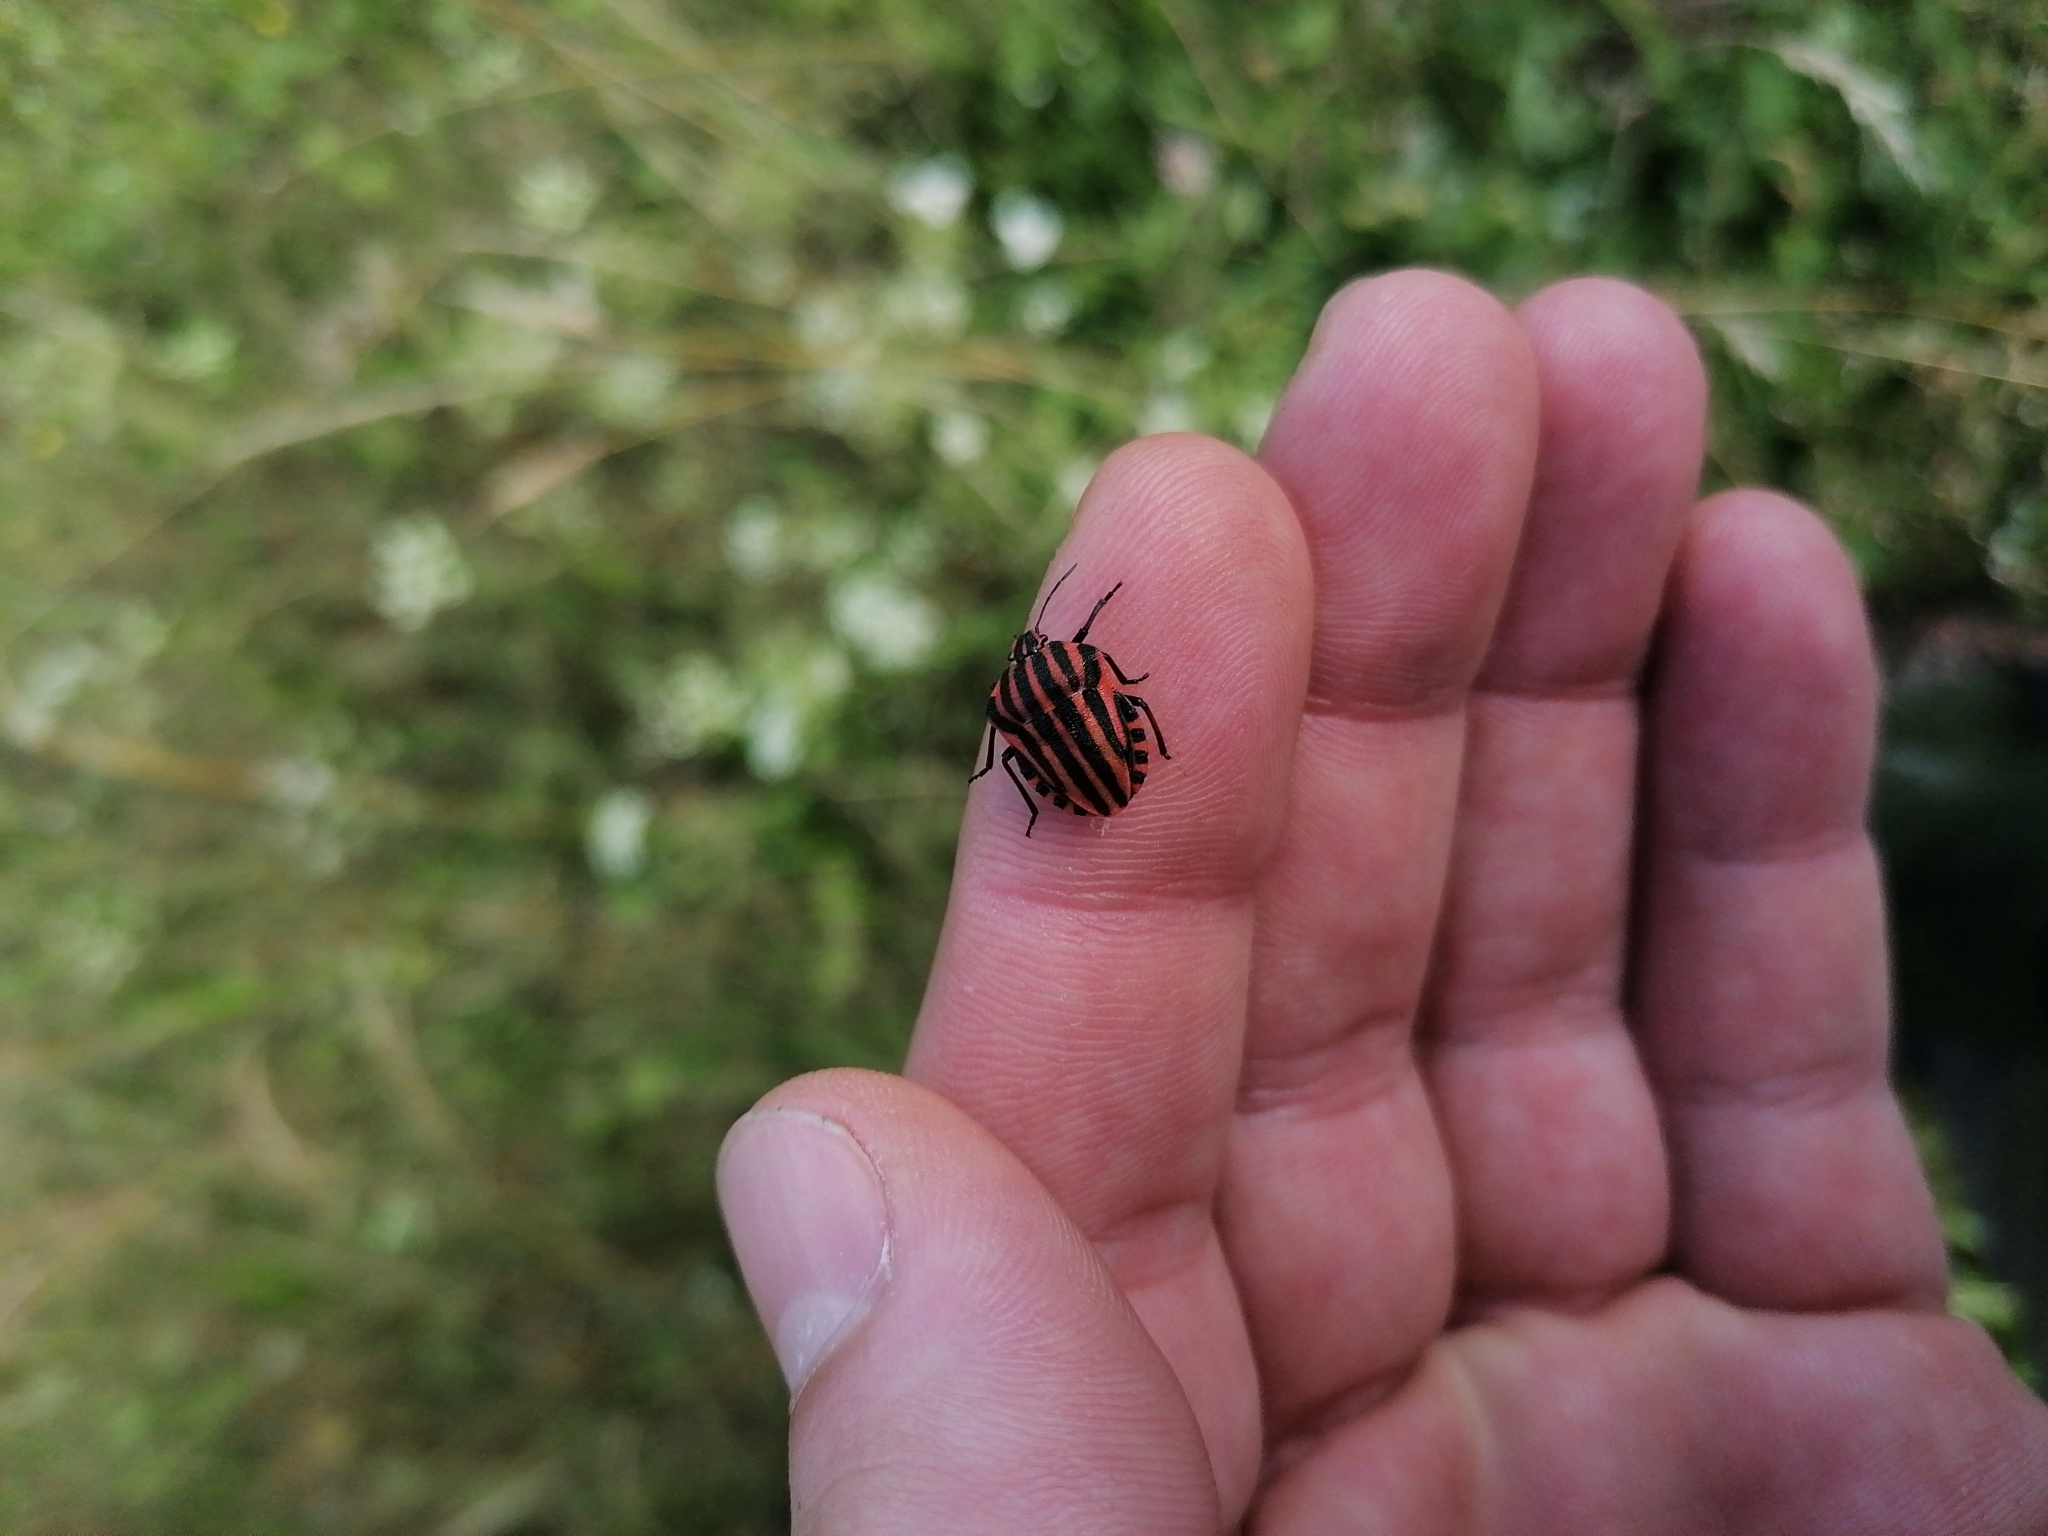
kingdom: Animalia
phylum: Arthropoda
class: Insecta
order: Hemiptera
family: Pentatomidae
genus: Graphosoma
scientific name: Graphosoma italicum
